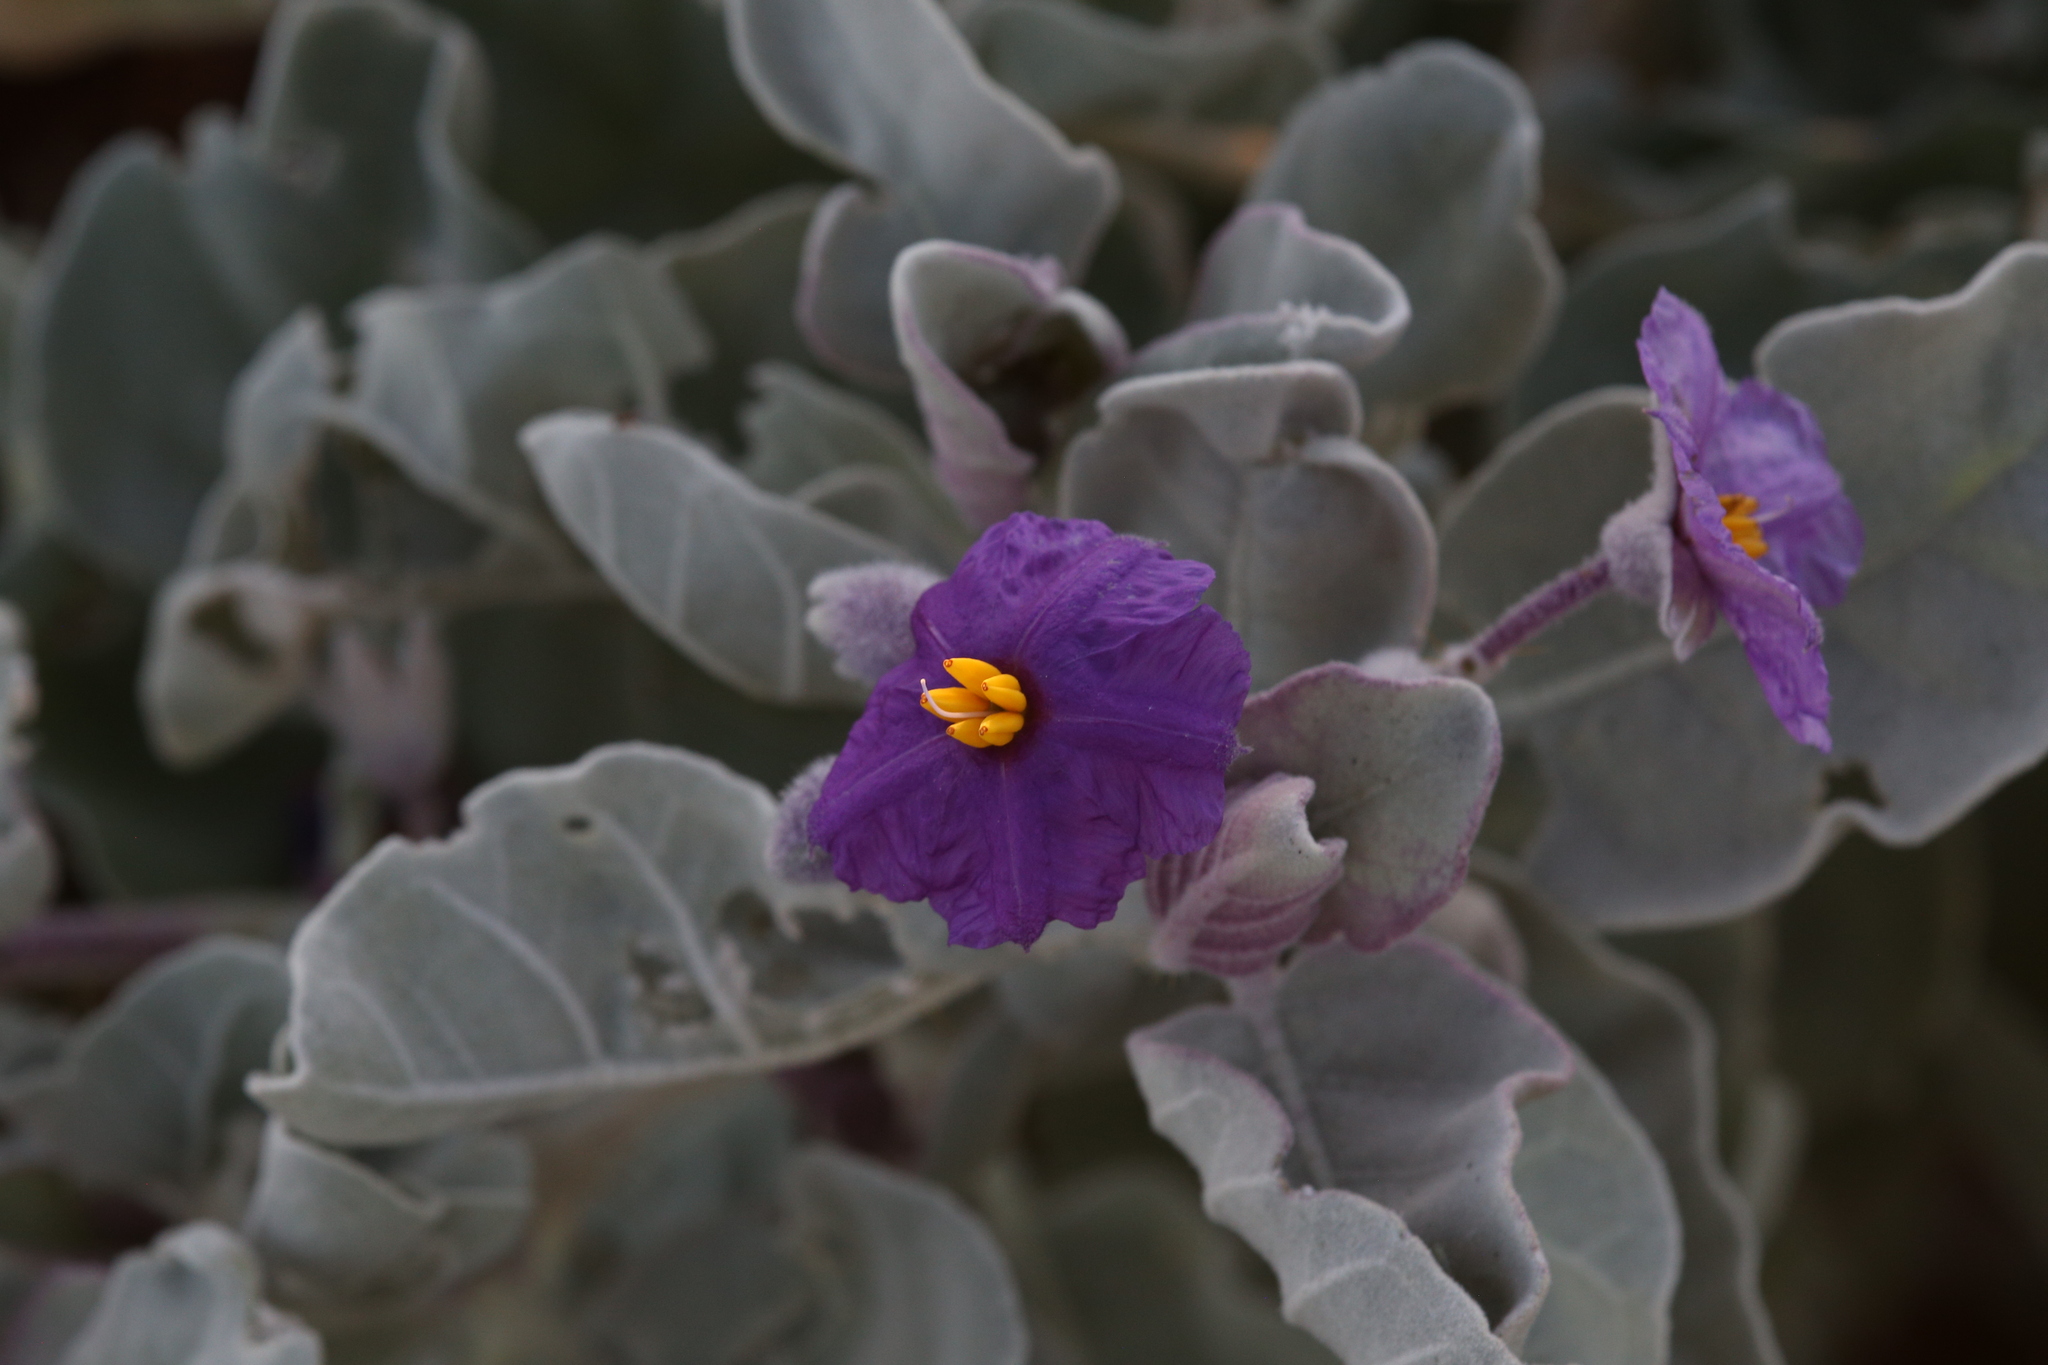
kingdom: Plantae
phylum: Tracheophyta
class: Magnoliopsida
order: Solanales
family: Solanaceae
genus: Solanum
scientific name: Solanum lasiophyllum
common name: Flannelbush
